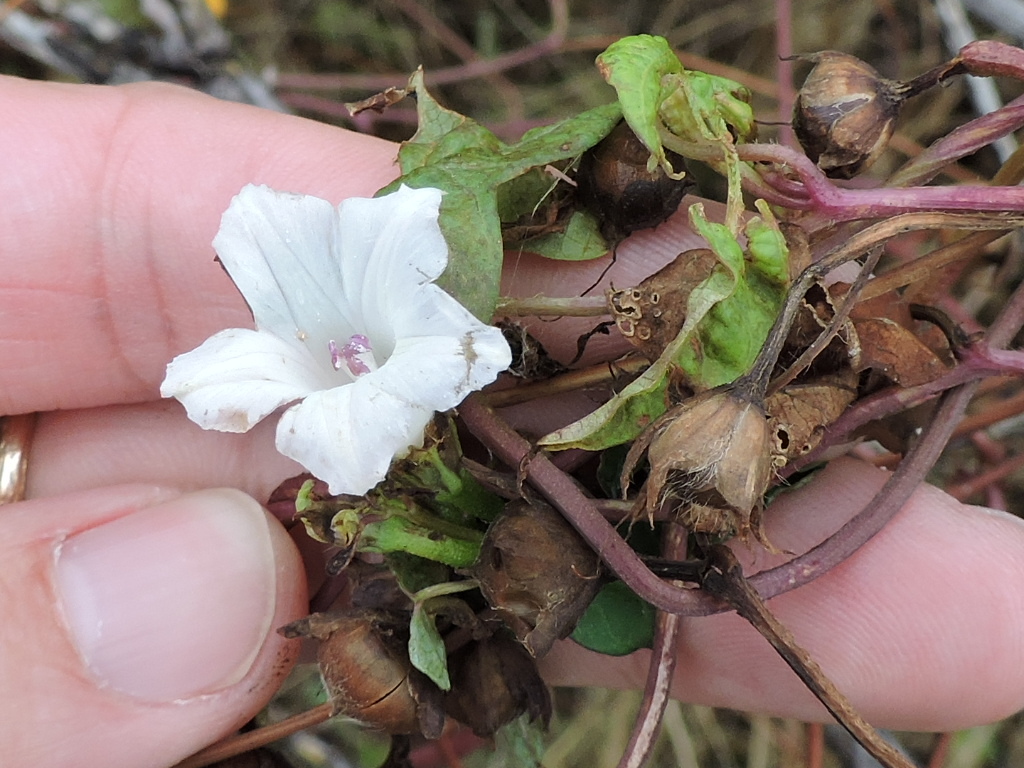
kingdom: Plantae
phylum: Tracheophyta
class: Magnoliopsida
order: Solanales
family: Convolvulaceae
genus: Ipomoea
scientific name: Ipomoea lacunosa
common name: White morning-glory
